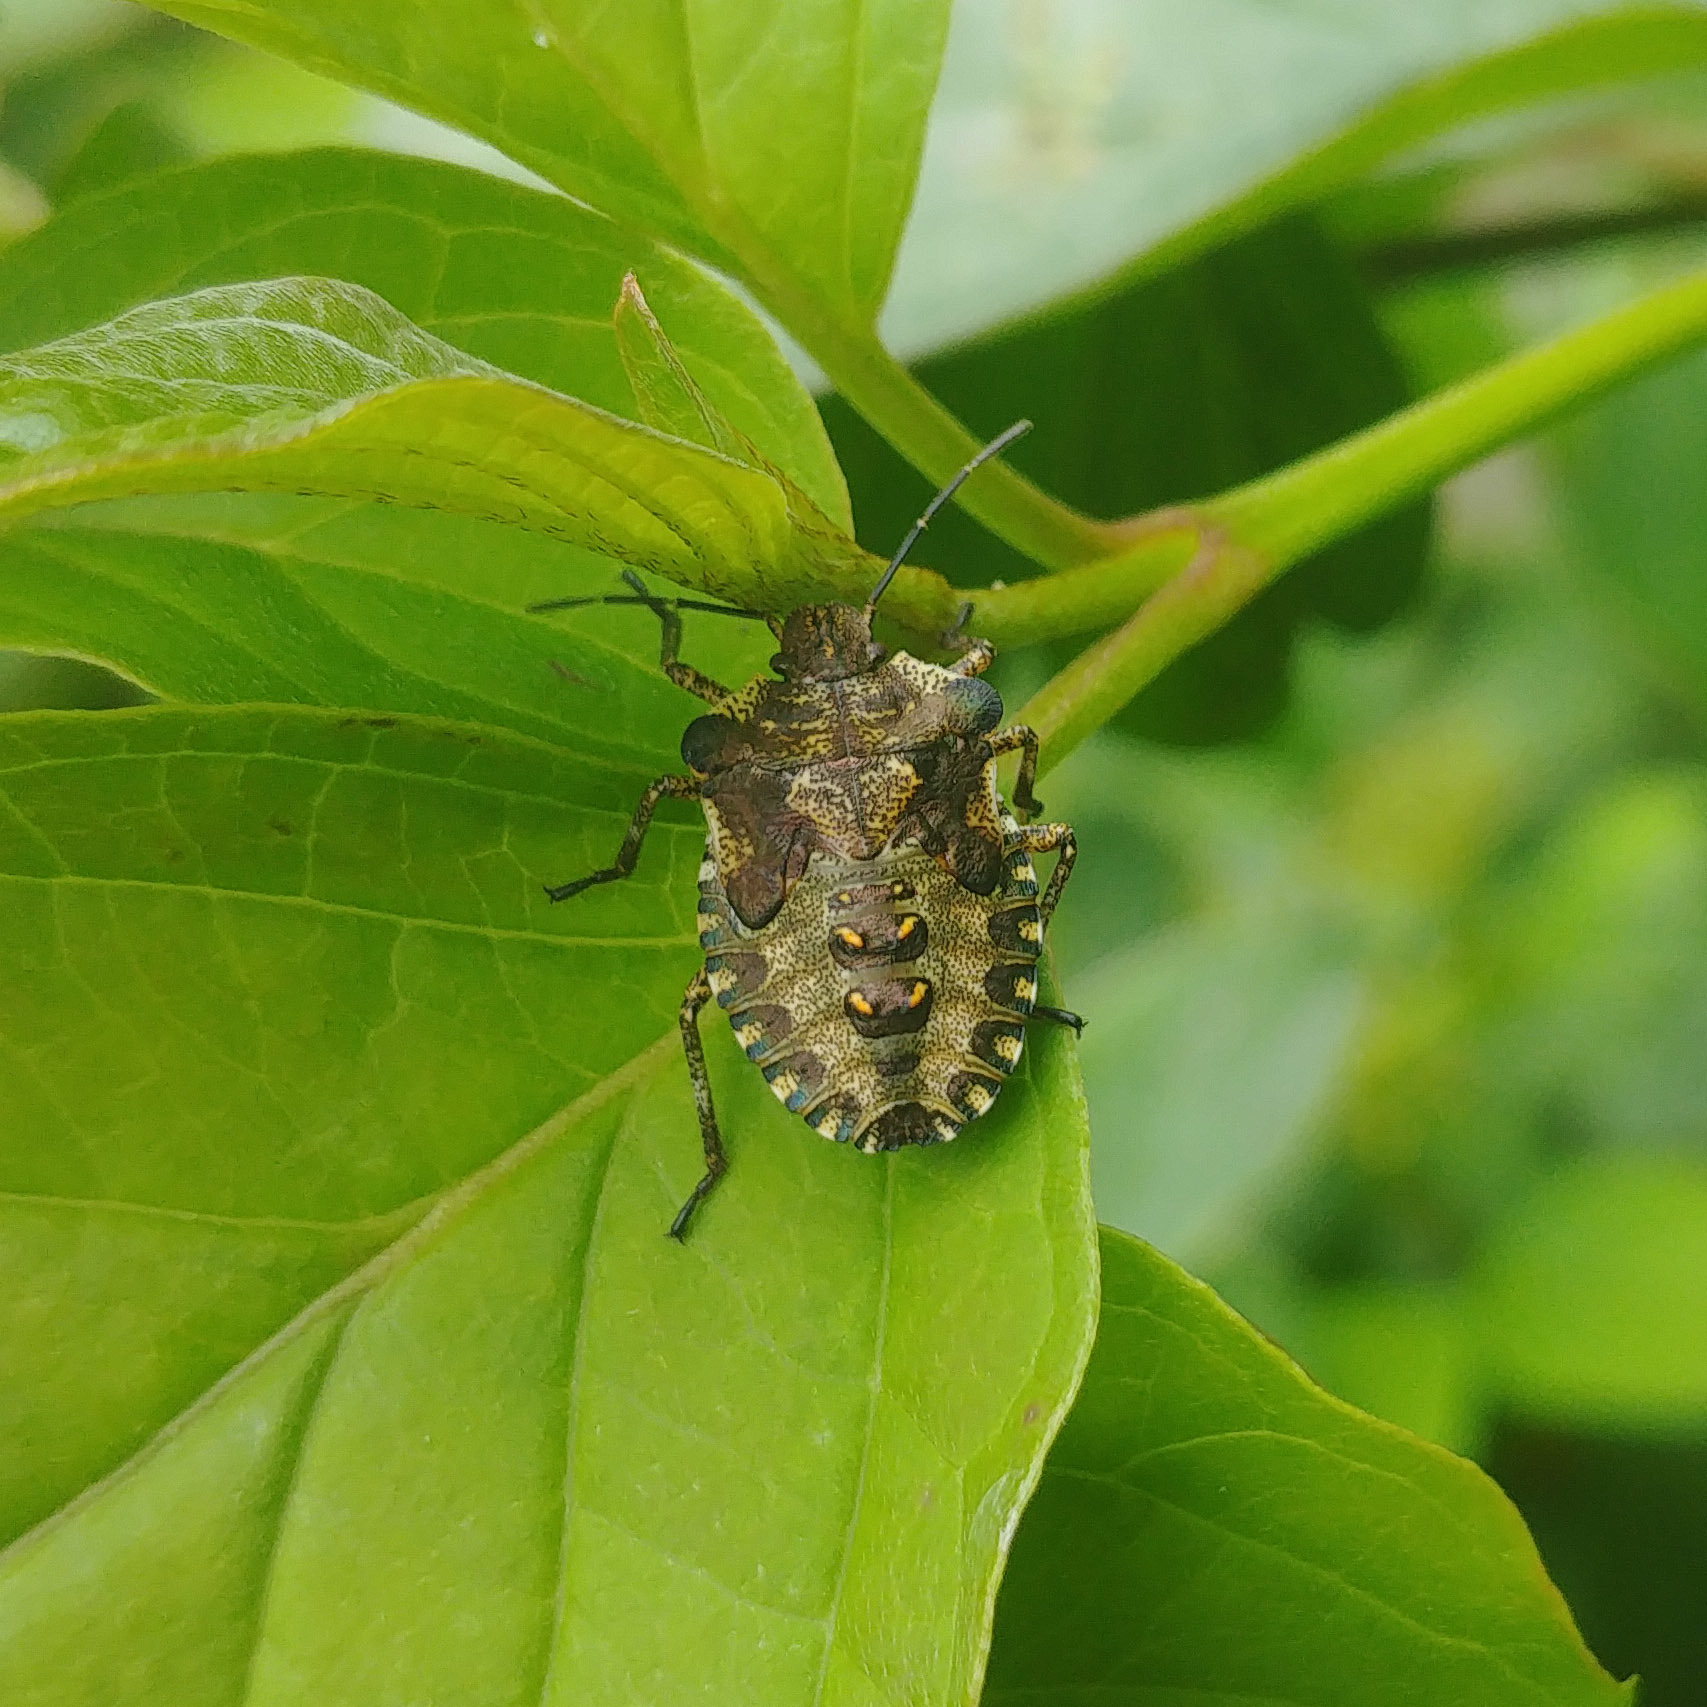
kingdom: Animalia
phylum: Arthropoda
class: Insecta
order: Hemiptera
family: Pentatomidae
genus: Pentatoma
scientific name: Pentatoma rufipes
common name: Forest bug
